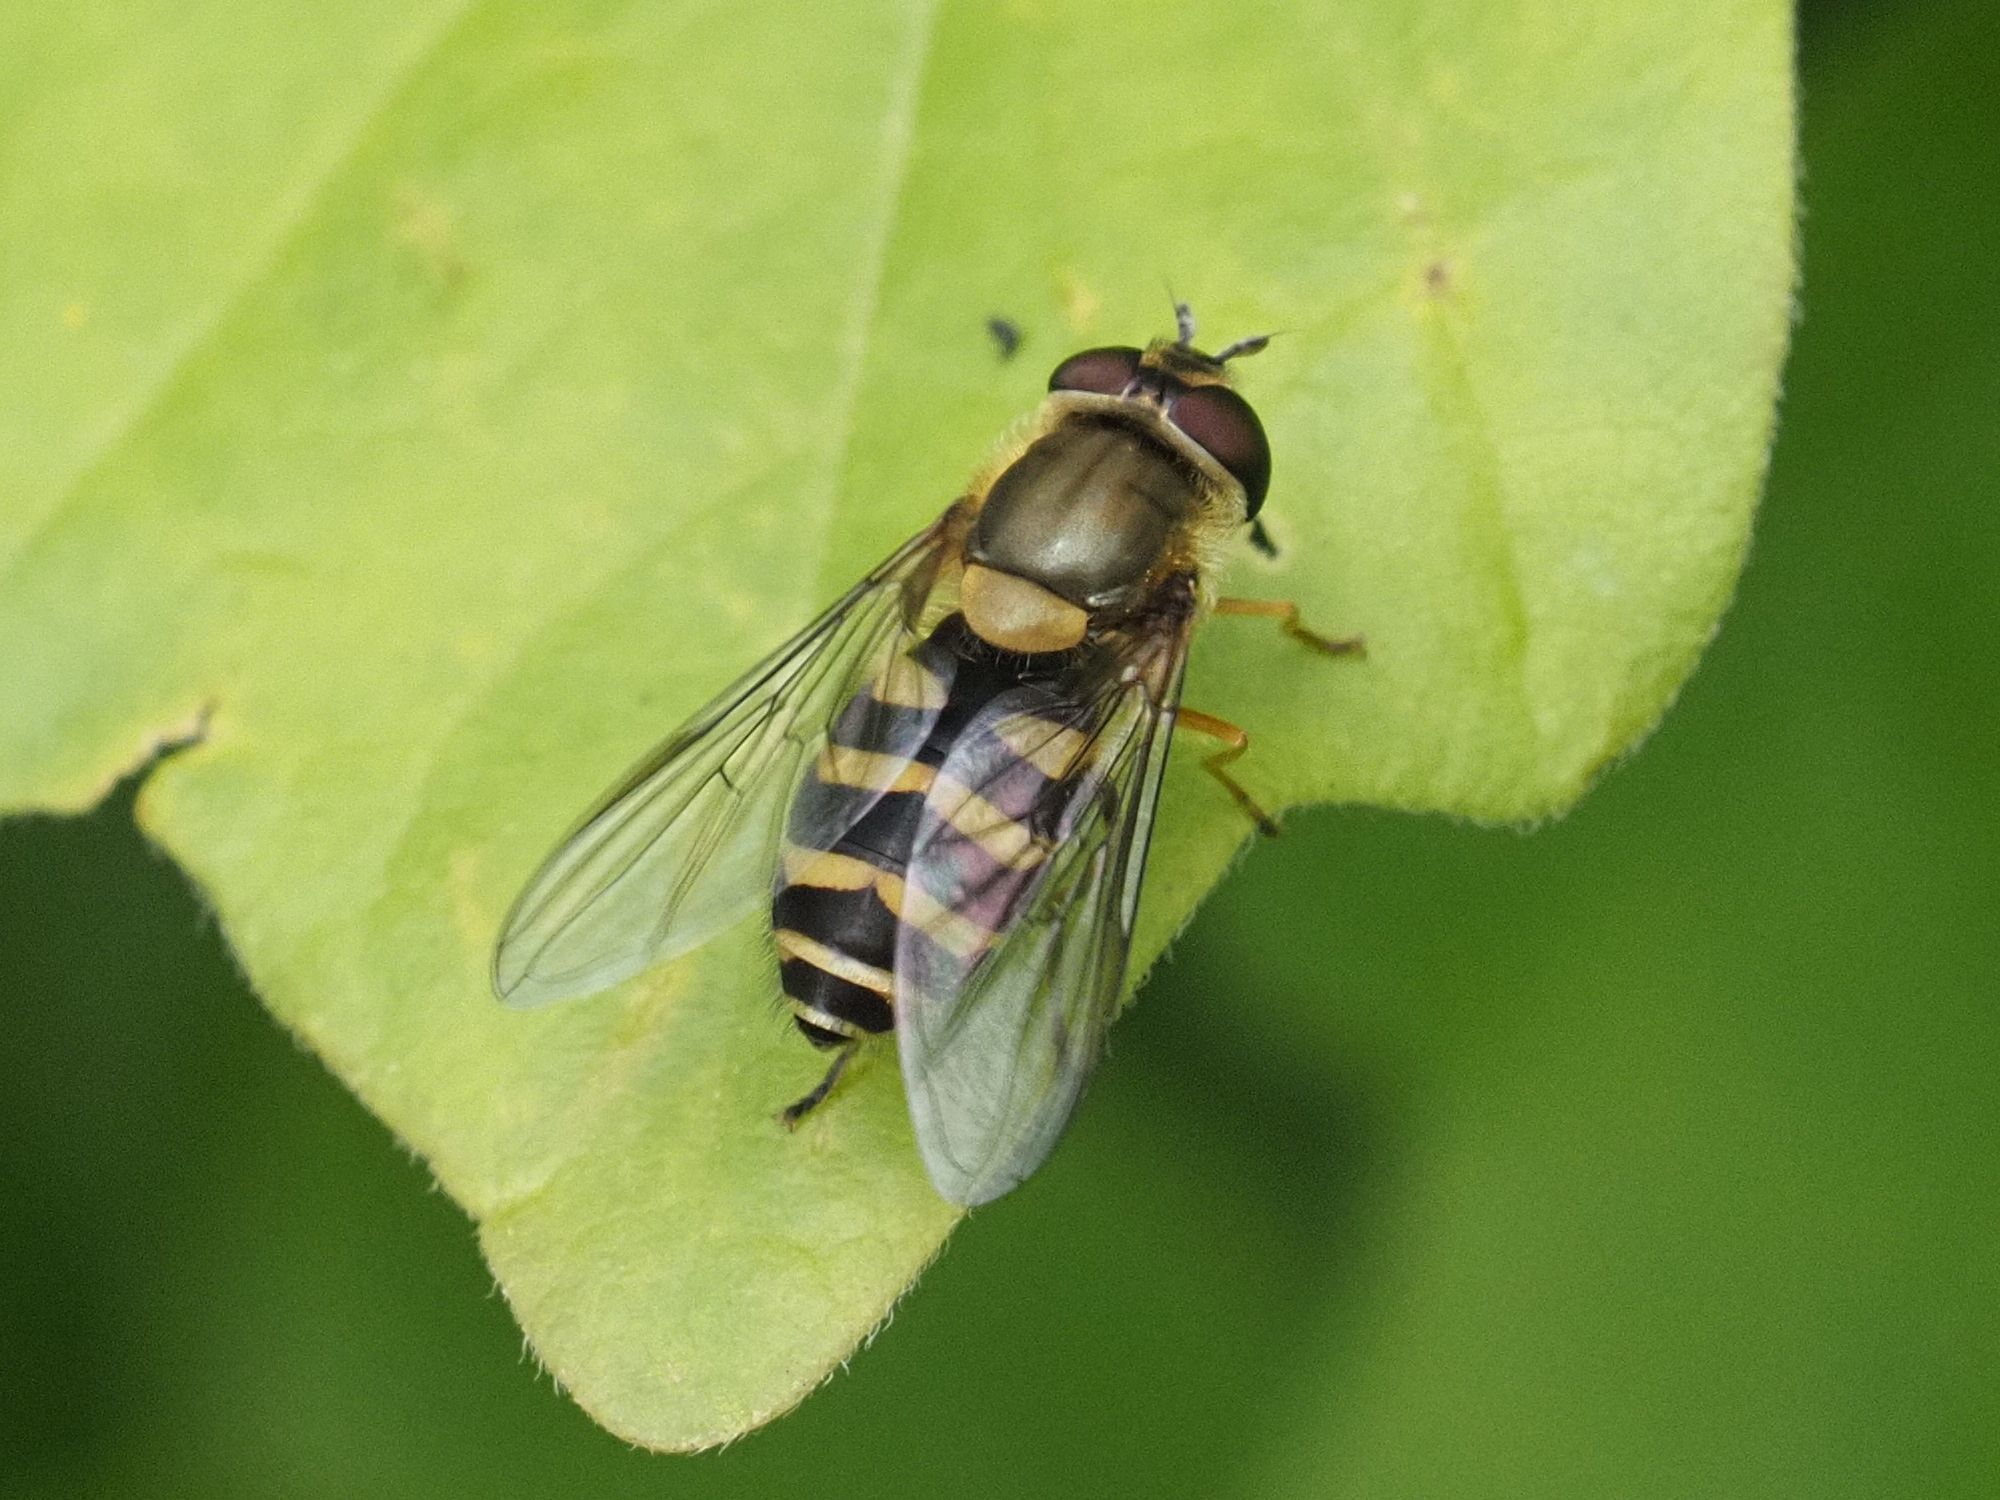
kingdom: Animalia
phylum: Arthropoda
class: Insecta
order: Diptera
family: Syrphidae
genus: Syrphus
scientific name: Syrphus
